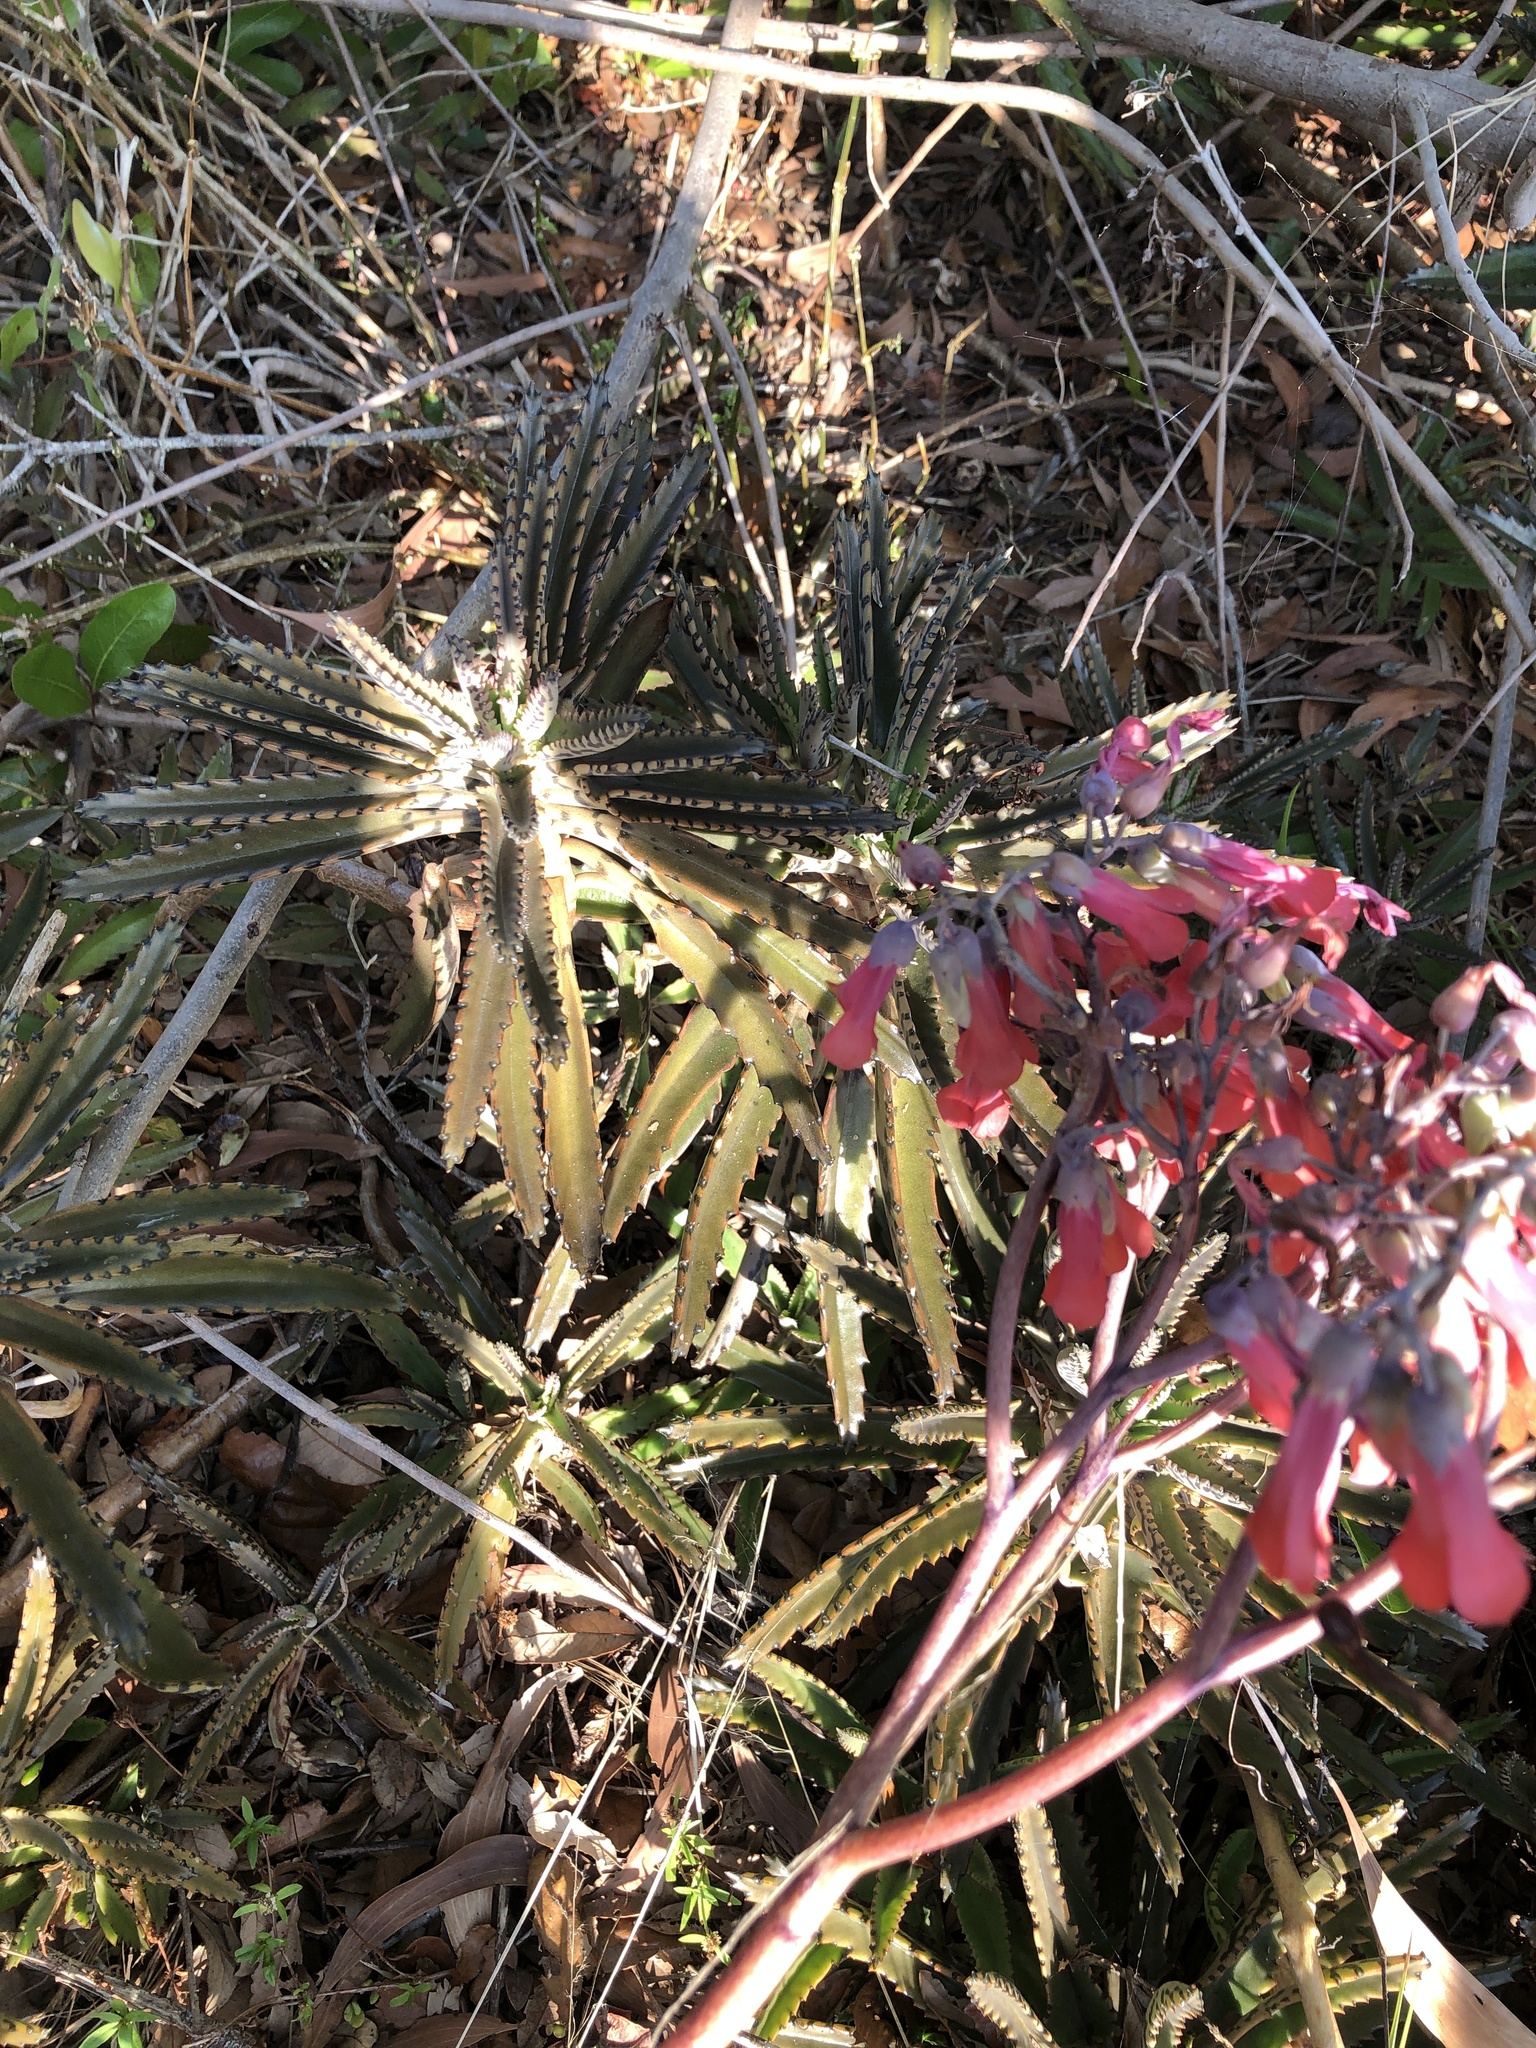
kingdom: Plantae
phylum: Tracheophyta
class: Magnoliopsida
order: Saxifragales
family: Crassulaceae
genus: Kalanchoe
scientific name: Kalanchoe houghtonii
